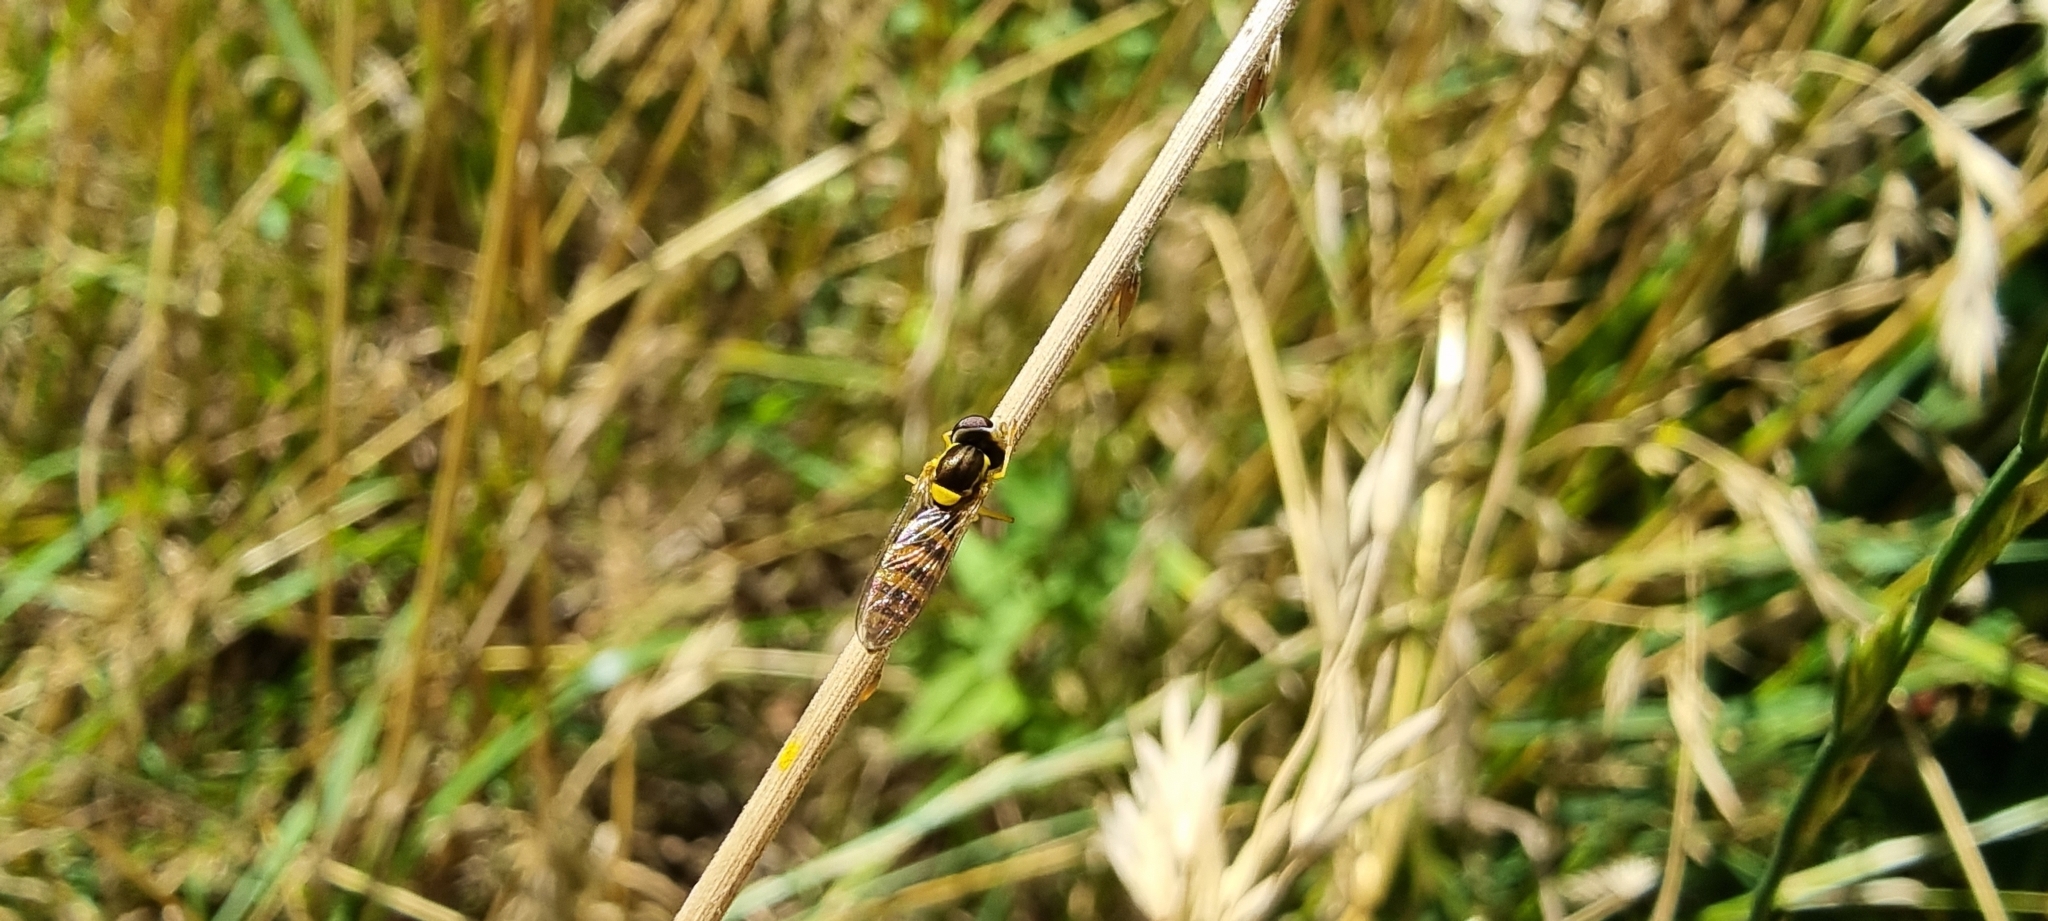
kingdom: Animalia
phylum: Arthropoda
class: Insecta
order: Diptera
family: Syrphidae
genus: Sphaerophoria
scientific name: Sphaerophoria
